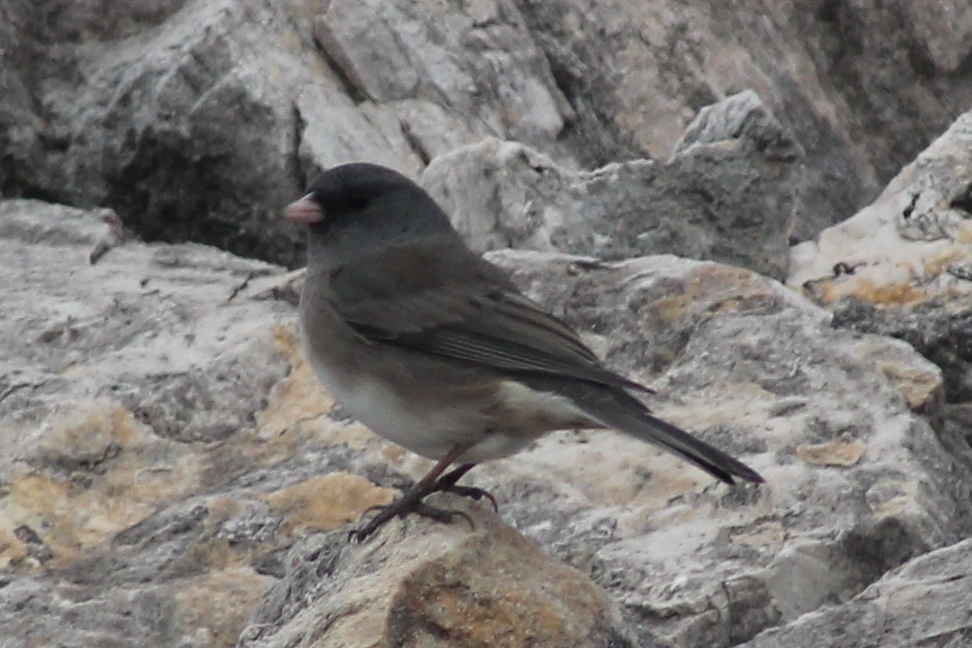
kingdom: Animalia
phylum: Chordata
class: Aves
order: Passeriformes
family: Passerellidae
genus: Junco
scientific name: Junco hyemalis
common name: Dark-eyed junco
